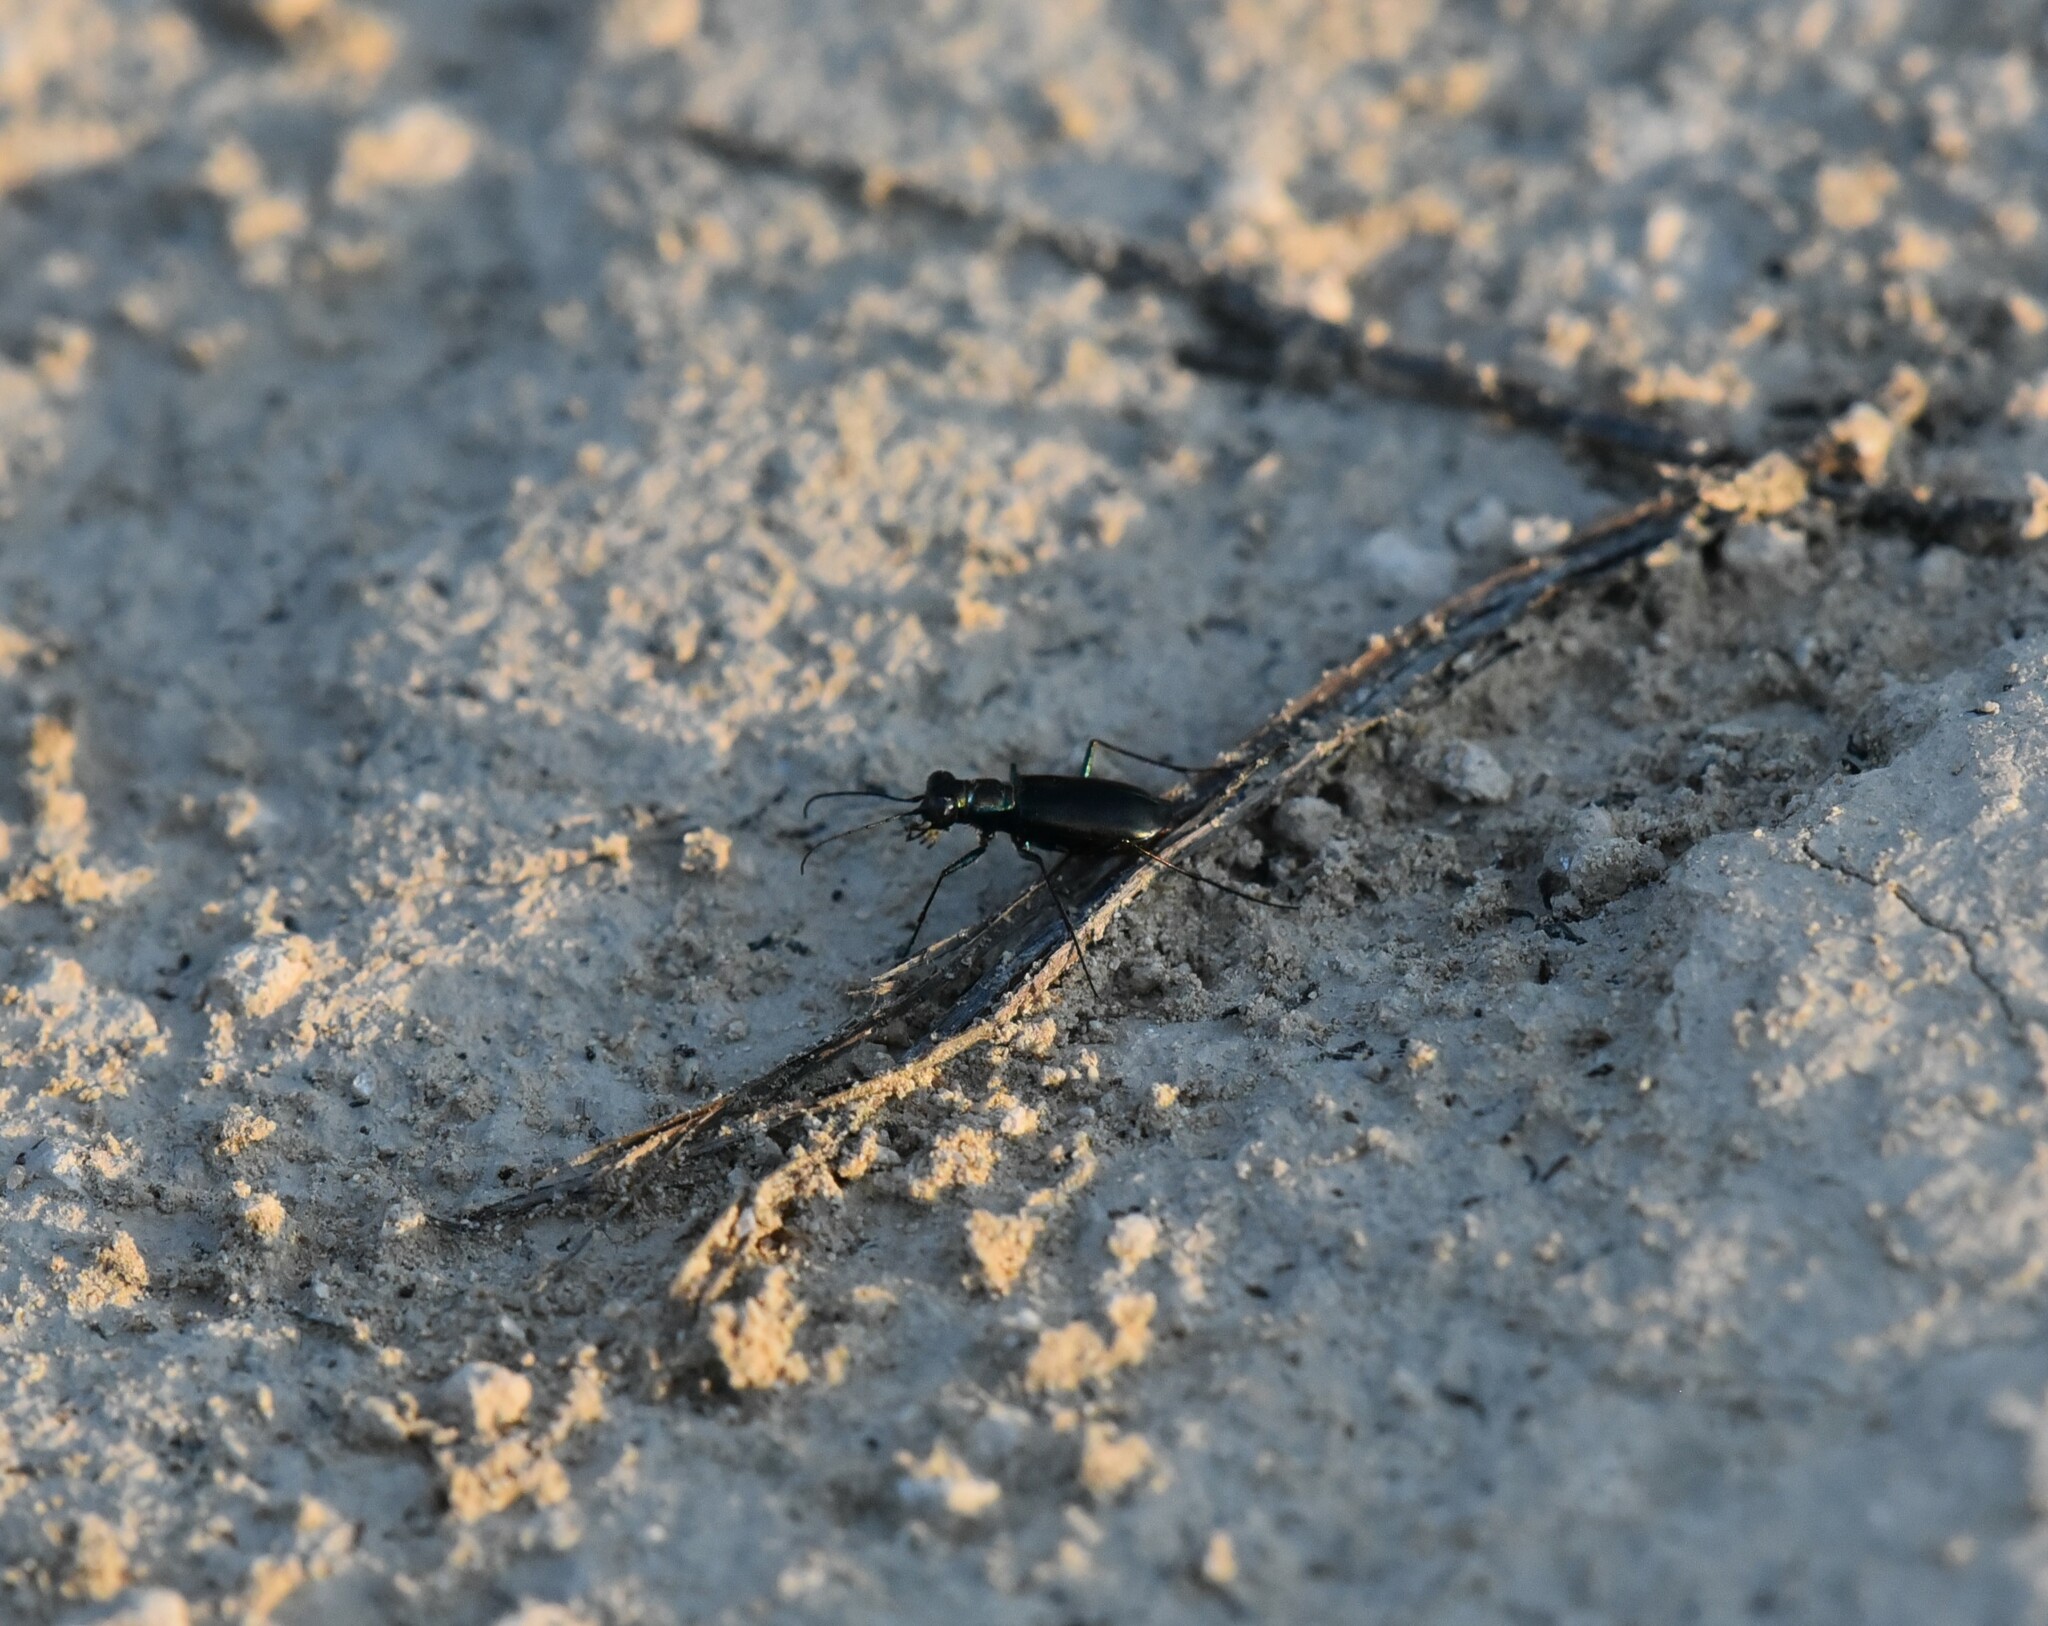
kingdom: Animalia
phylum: Arthropoda
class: Insecta
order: Coleoptera
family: Carabidae
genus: Cicindela
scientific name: Cicindela politula
